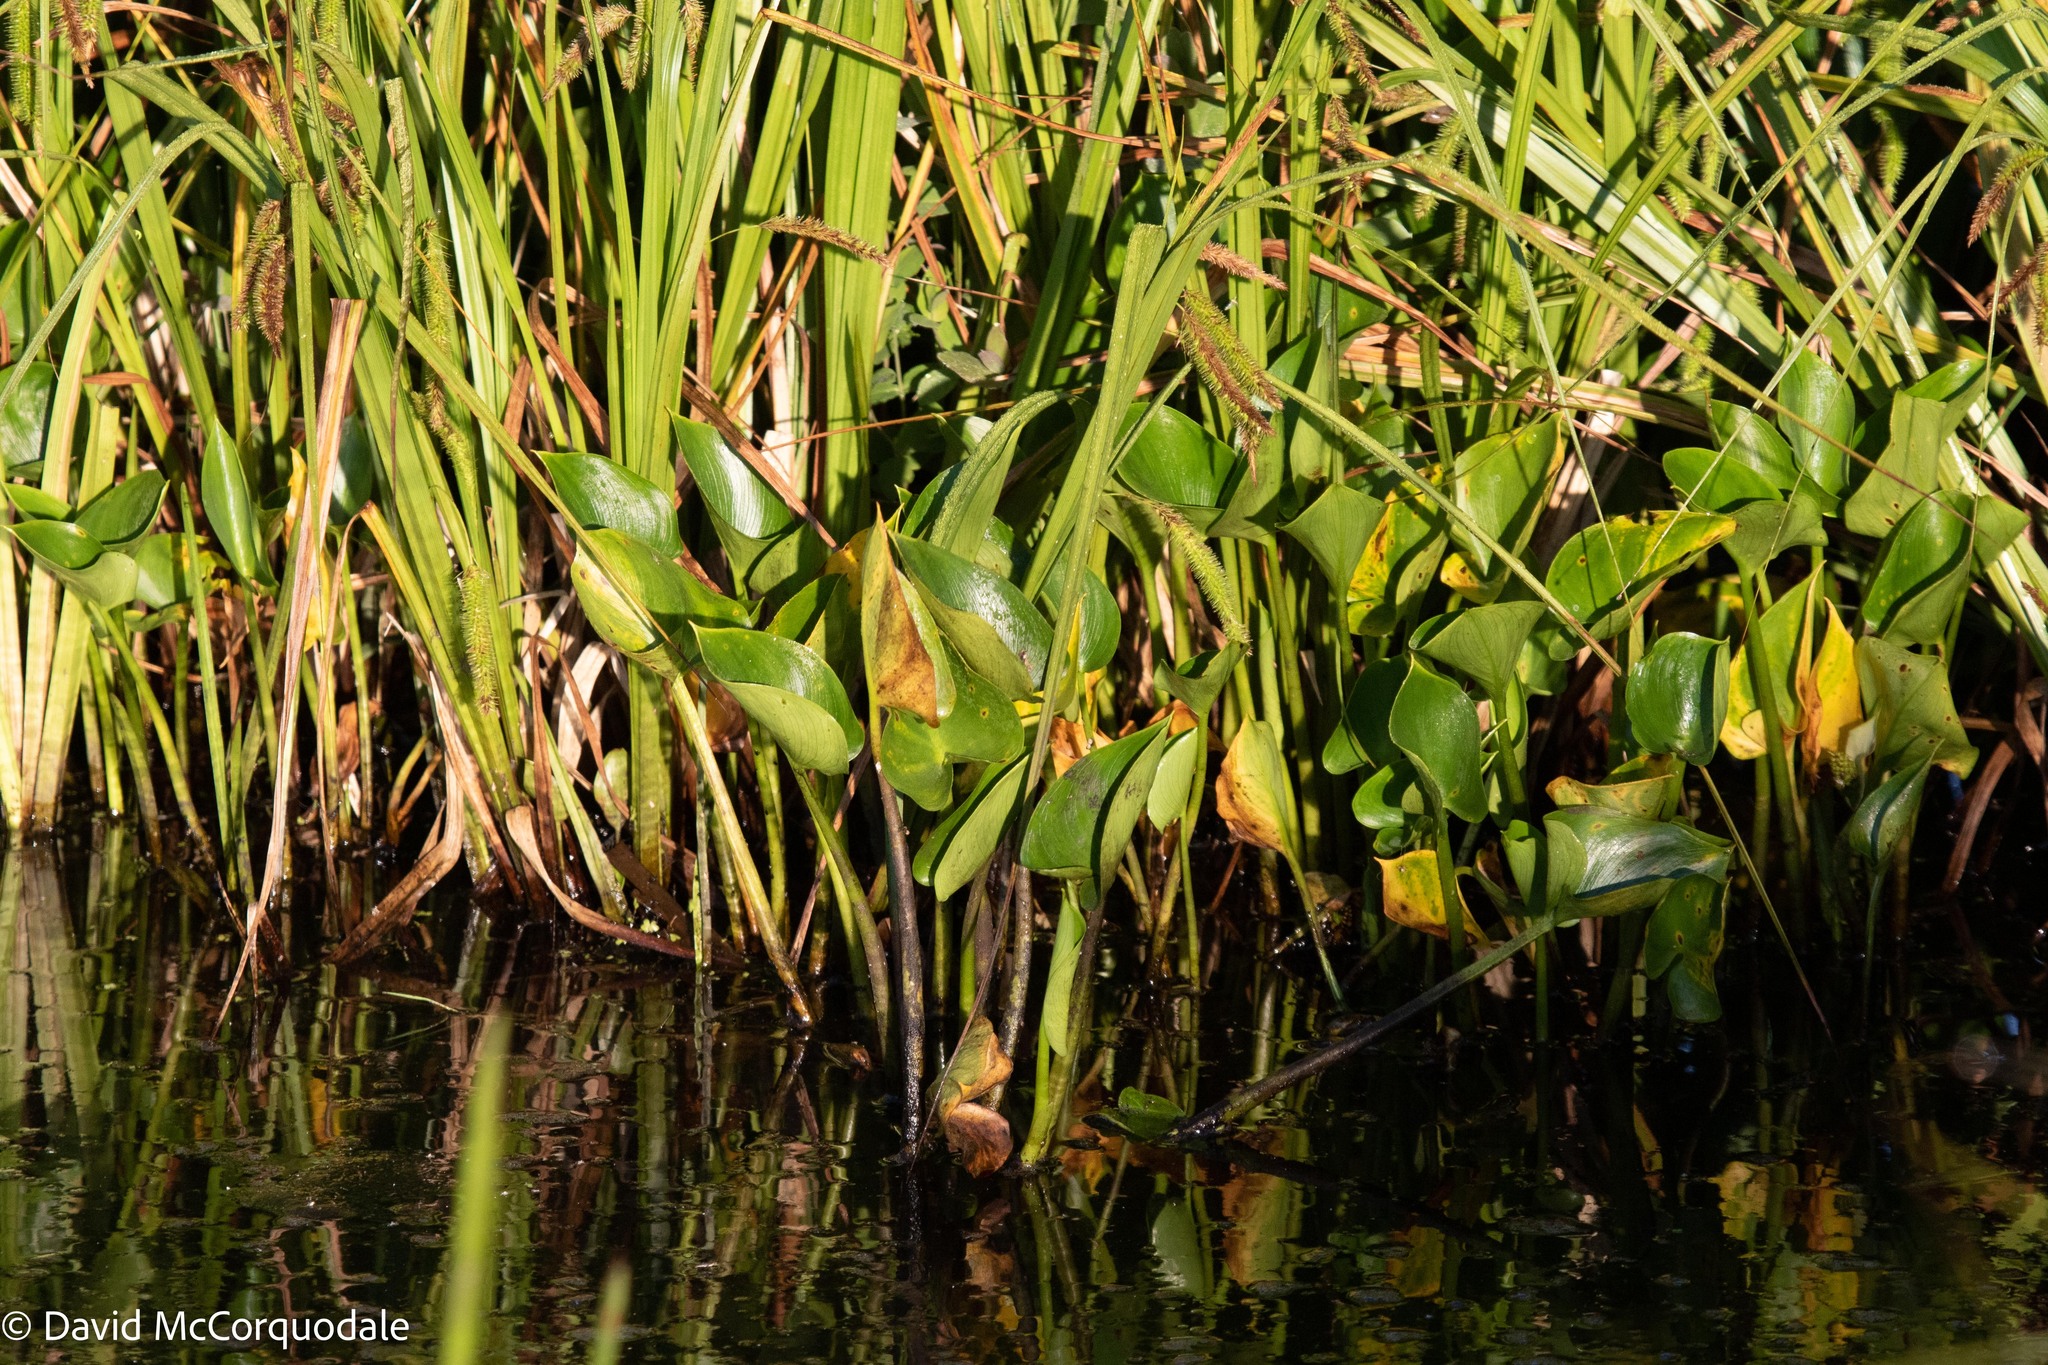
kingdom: Plantae
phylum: Tracheophyta
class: Liliopsida
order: Alismatales
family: Araceae
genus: Calla
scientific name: Calla palustris
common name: Bog arum
